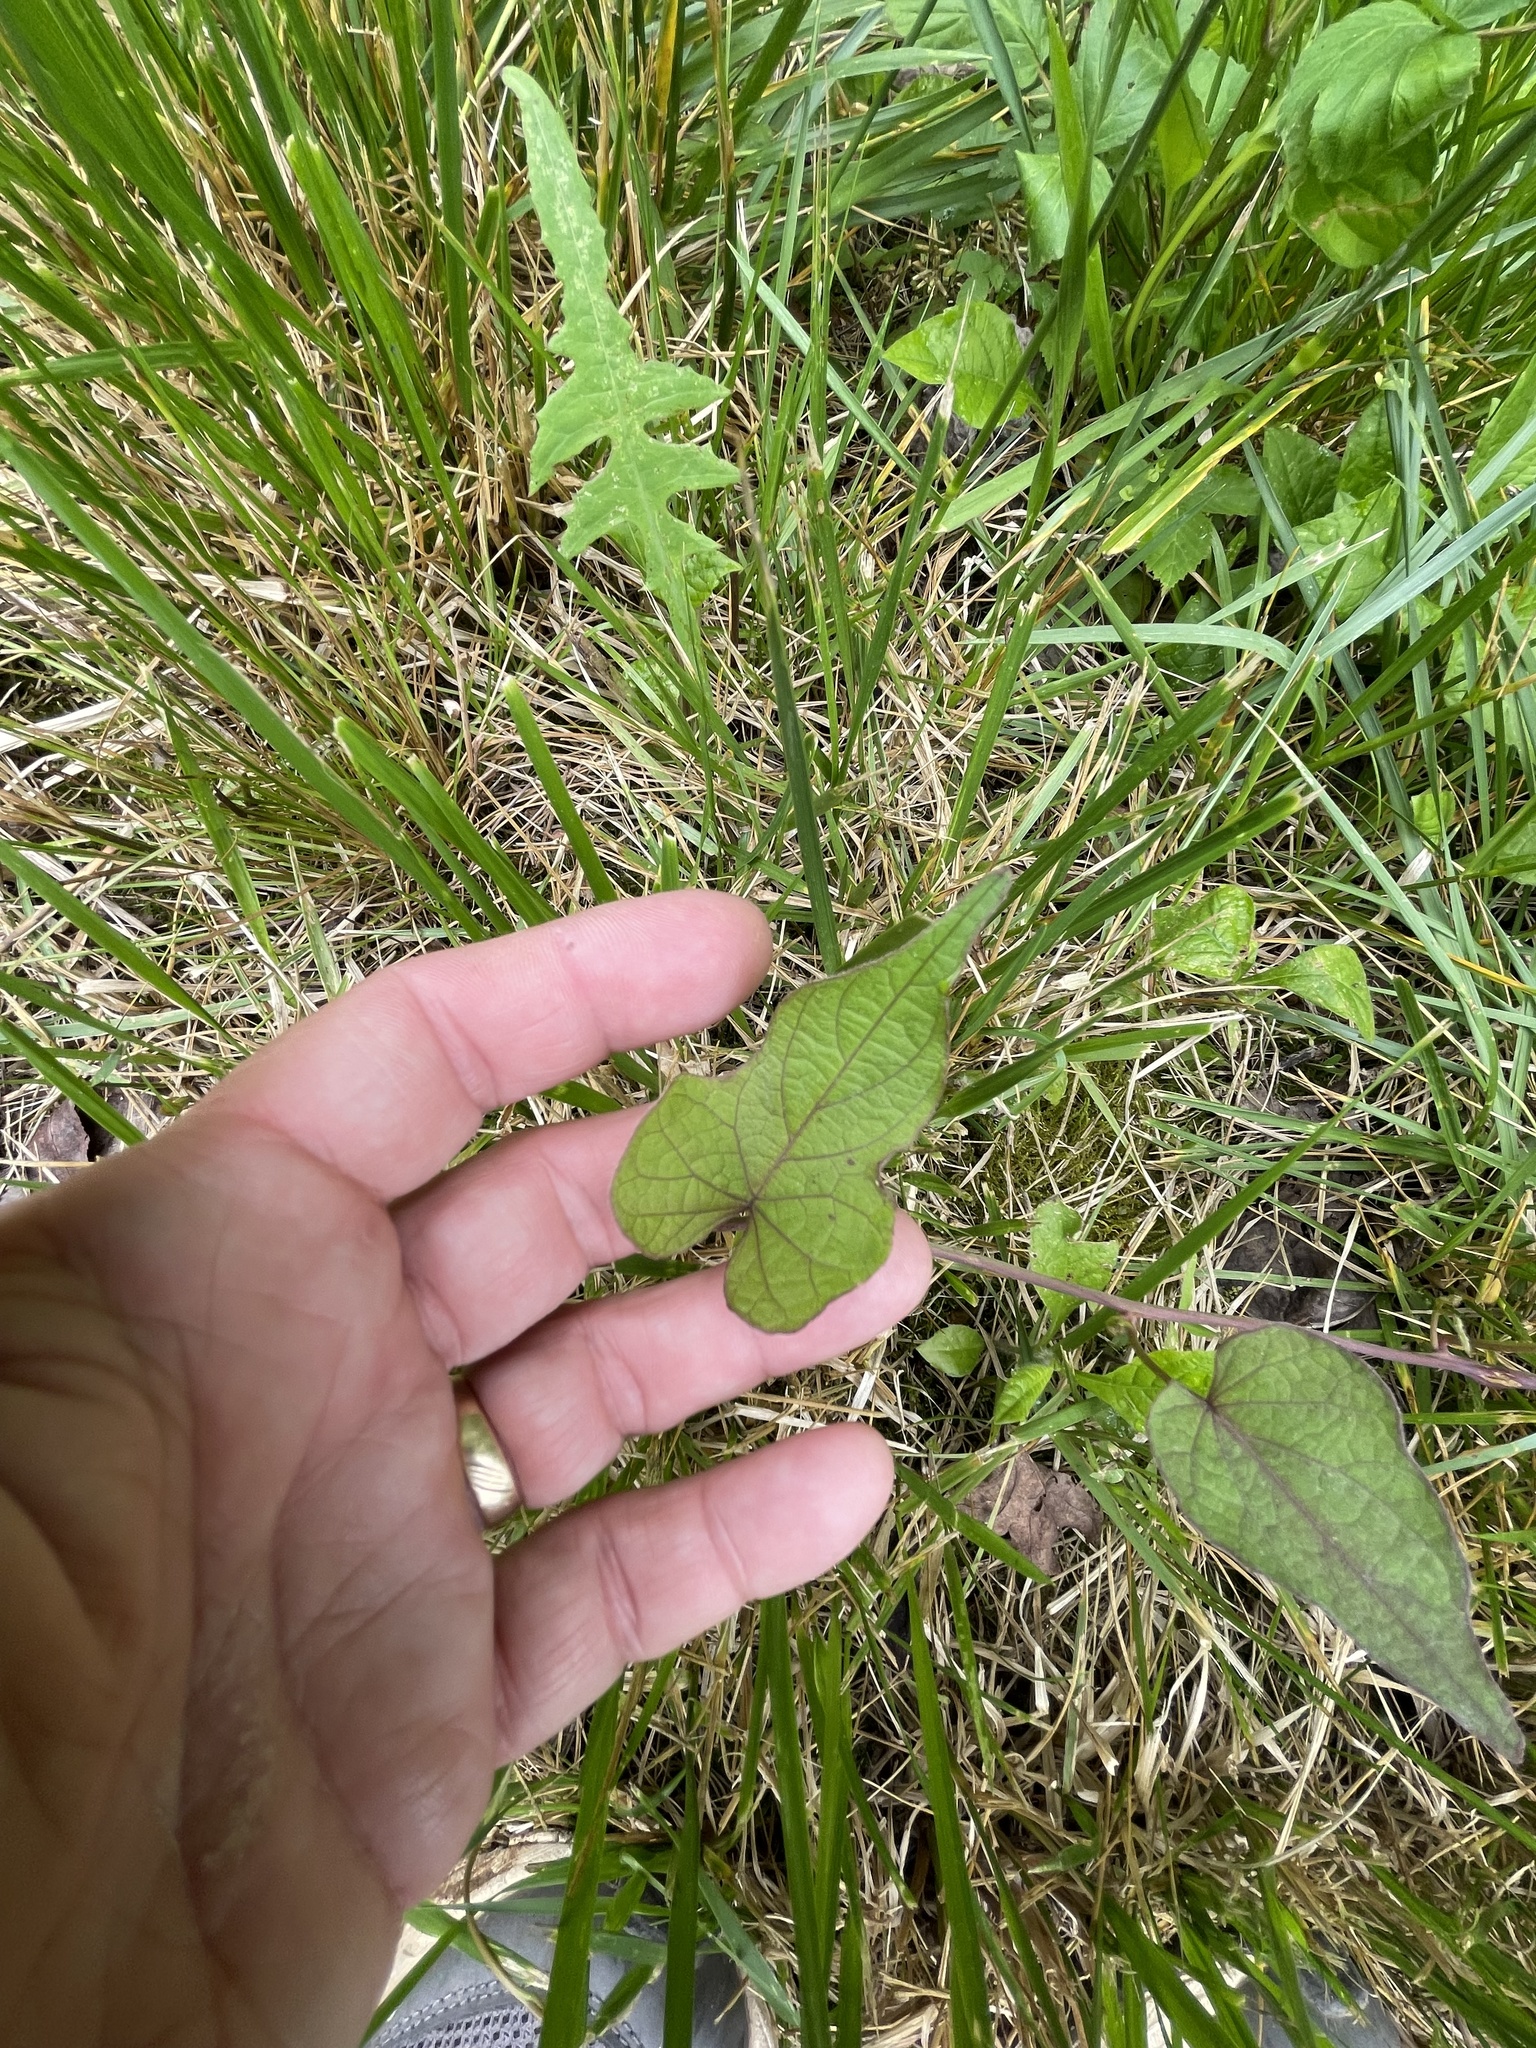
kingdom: Plantae
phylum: Tracheophyta
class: Magnoliopsida
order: Solanales
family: Convolvulaceae
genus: Ipomoea
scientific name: Ipomoea pandurata
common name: Man-of-the-earth
